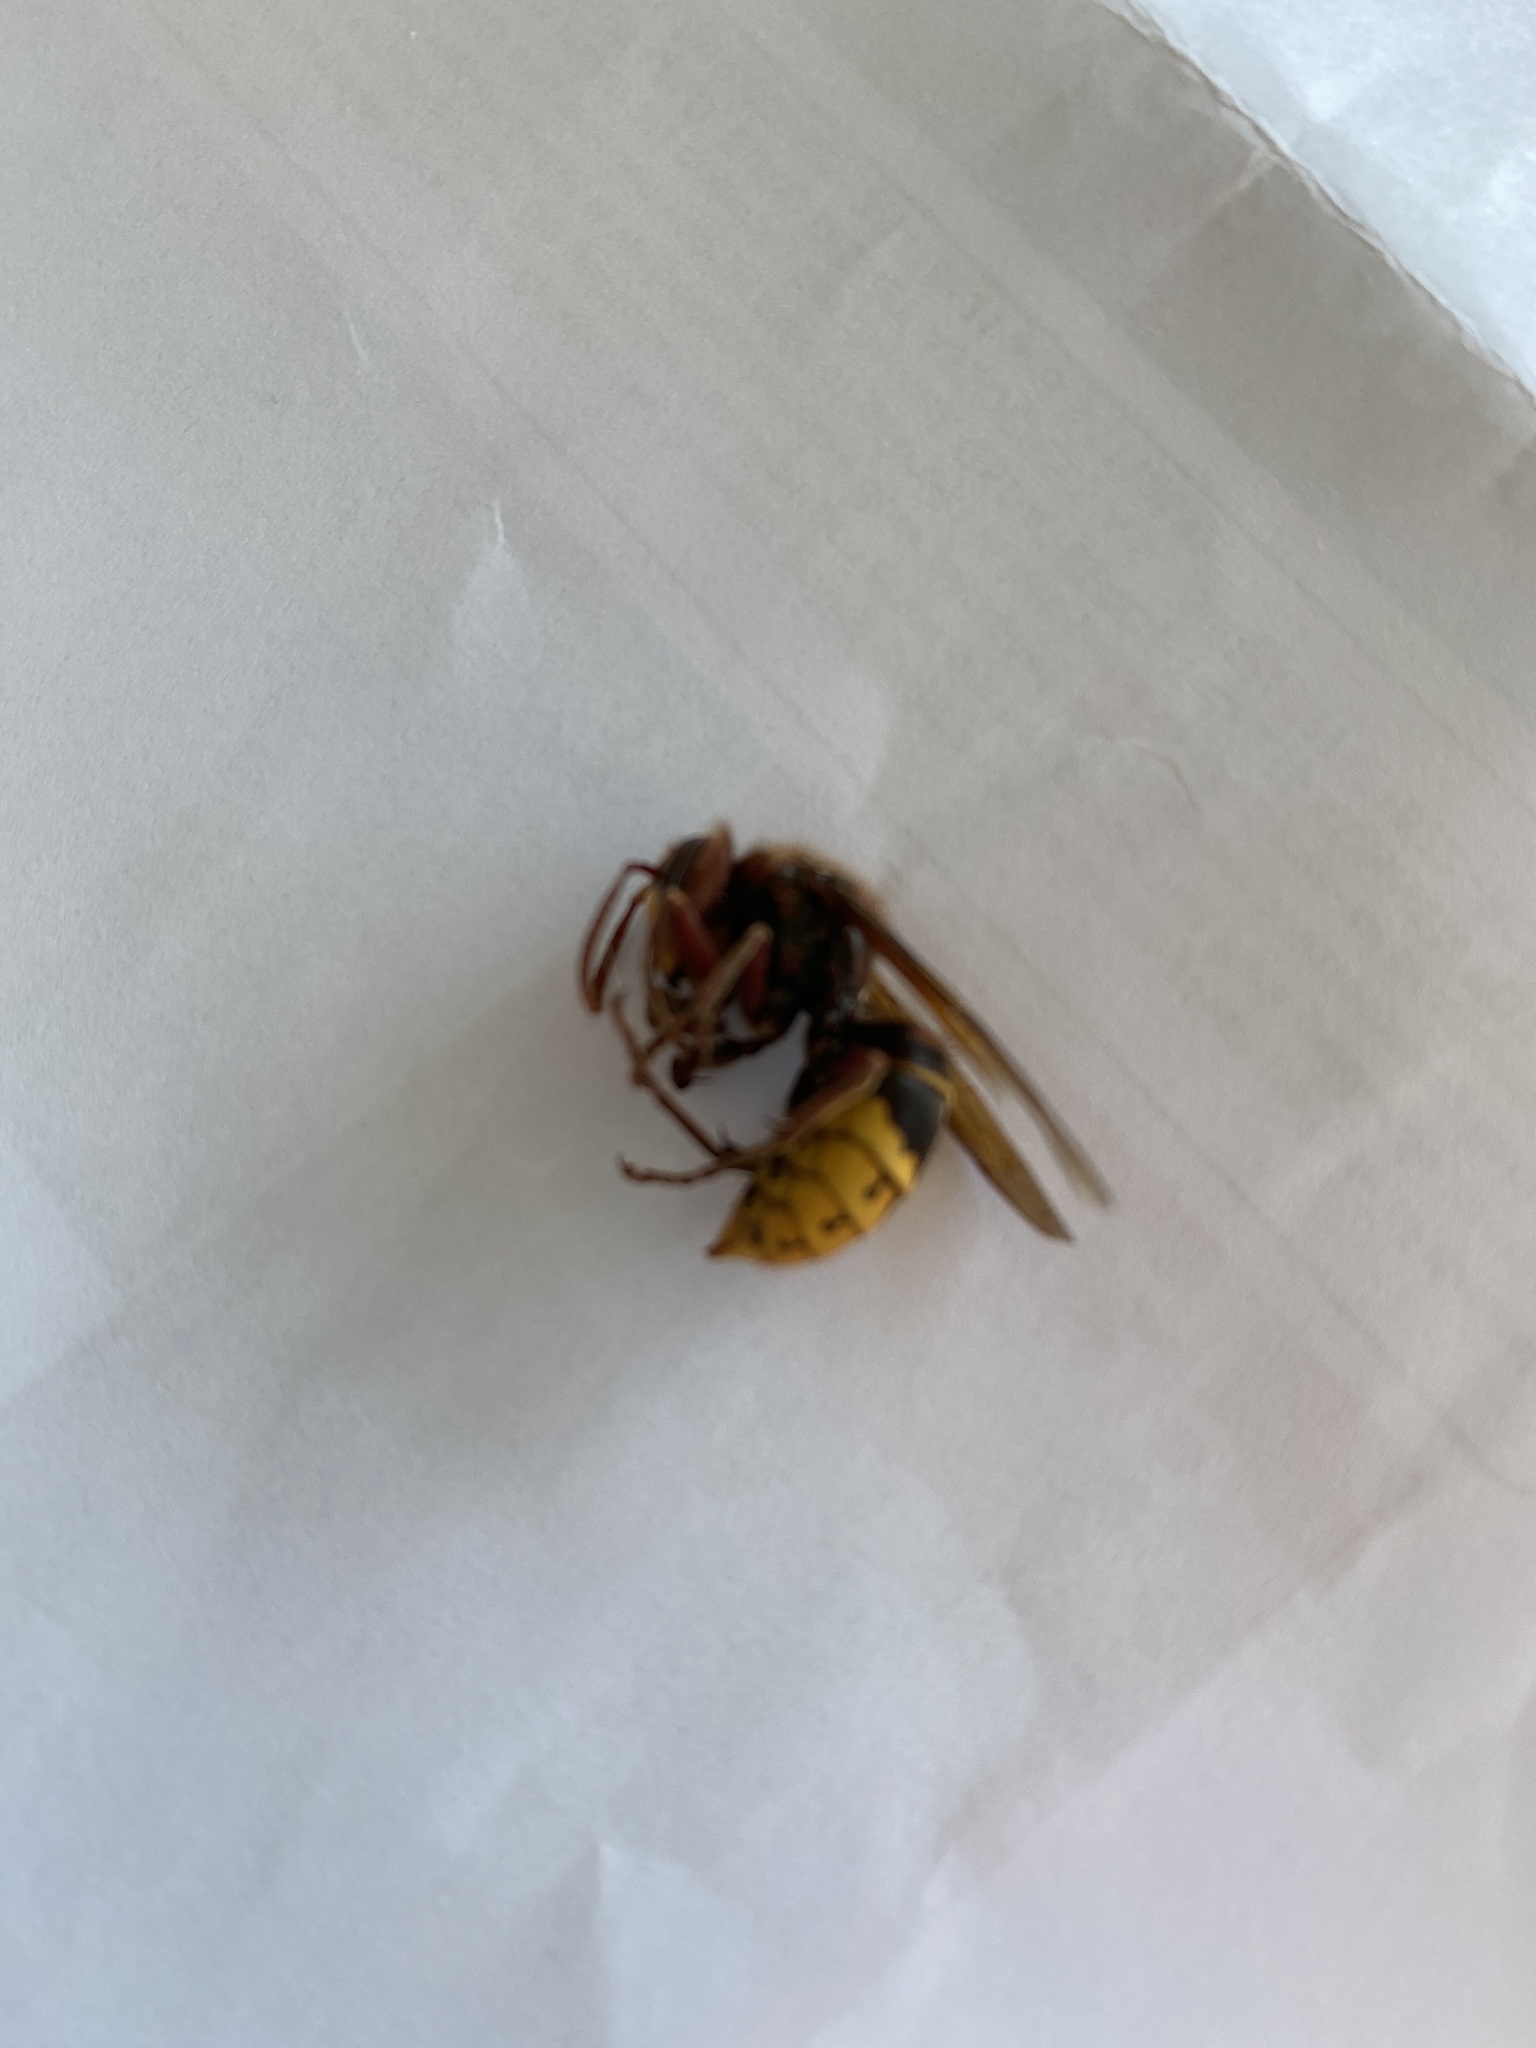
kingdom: Animalia
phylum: Arthropoda
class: Insecta
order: Hymenoptera
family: Vespidae
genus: Vespa
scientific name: Vespa crabro
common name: Hornet
